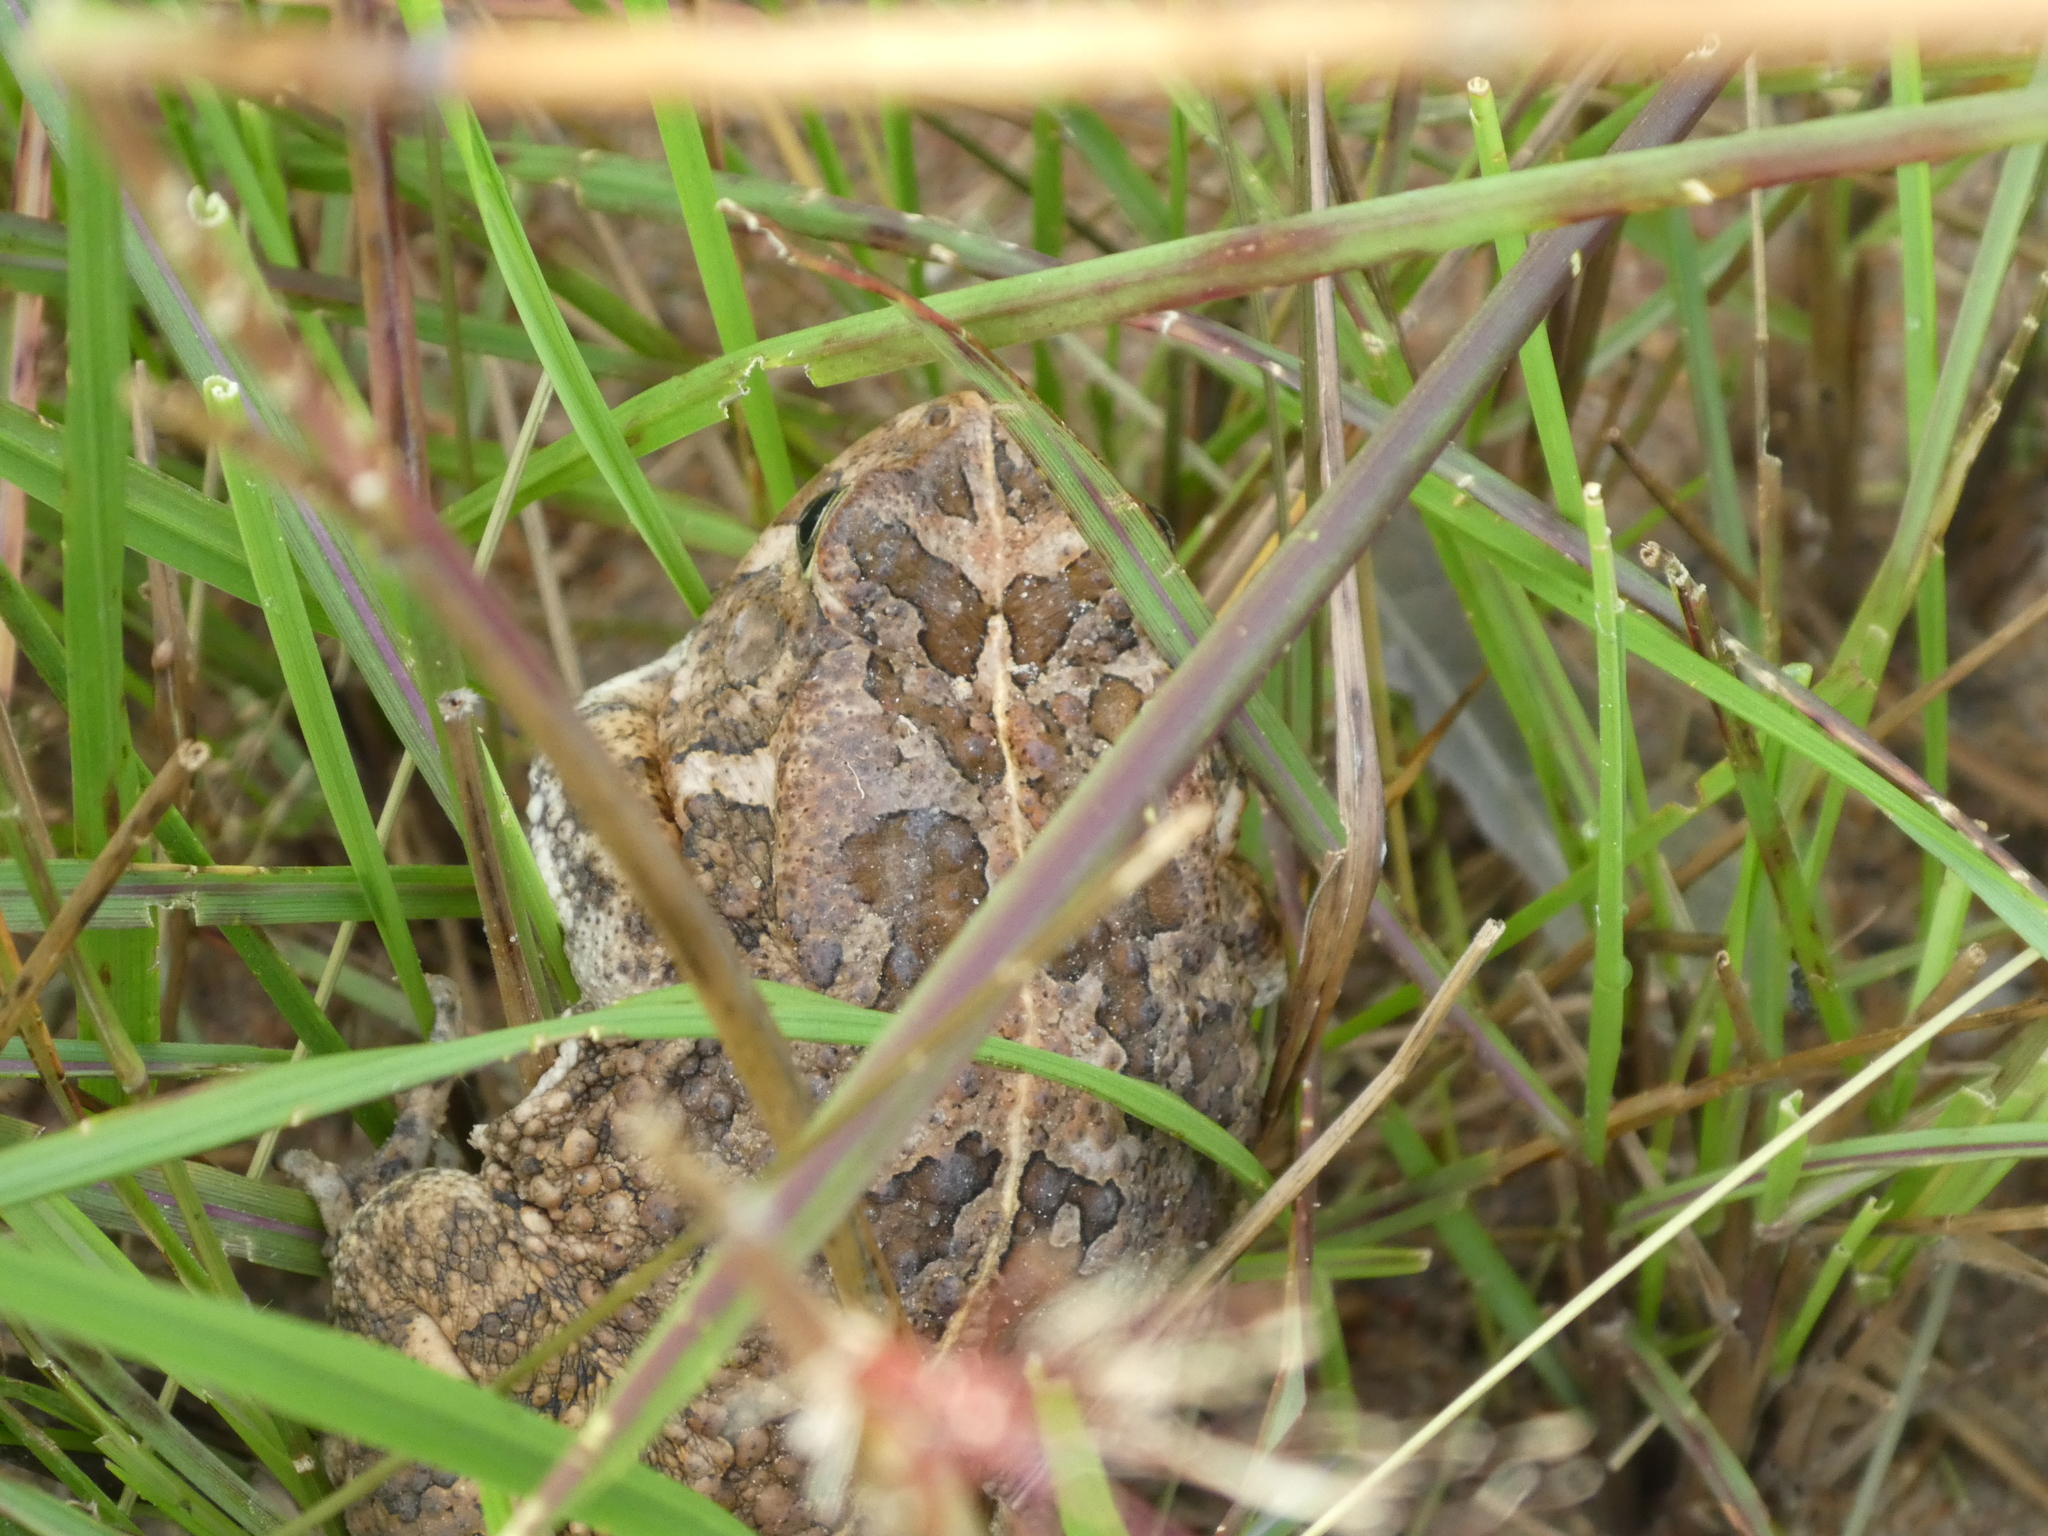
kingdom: Animalia
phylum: Chordata
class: Amphibia
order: Anura
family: Bufonidae
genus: Sclerophrys
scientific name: Sclerophrys gutturalis
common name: African common toad
